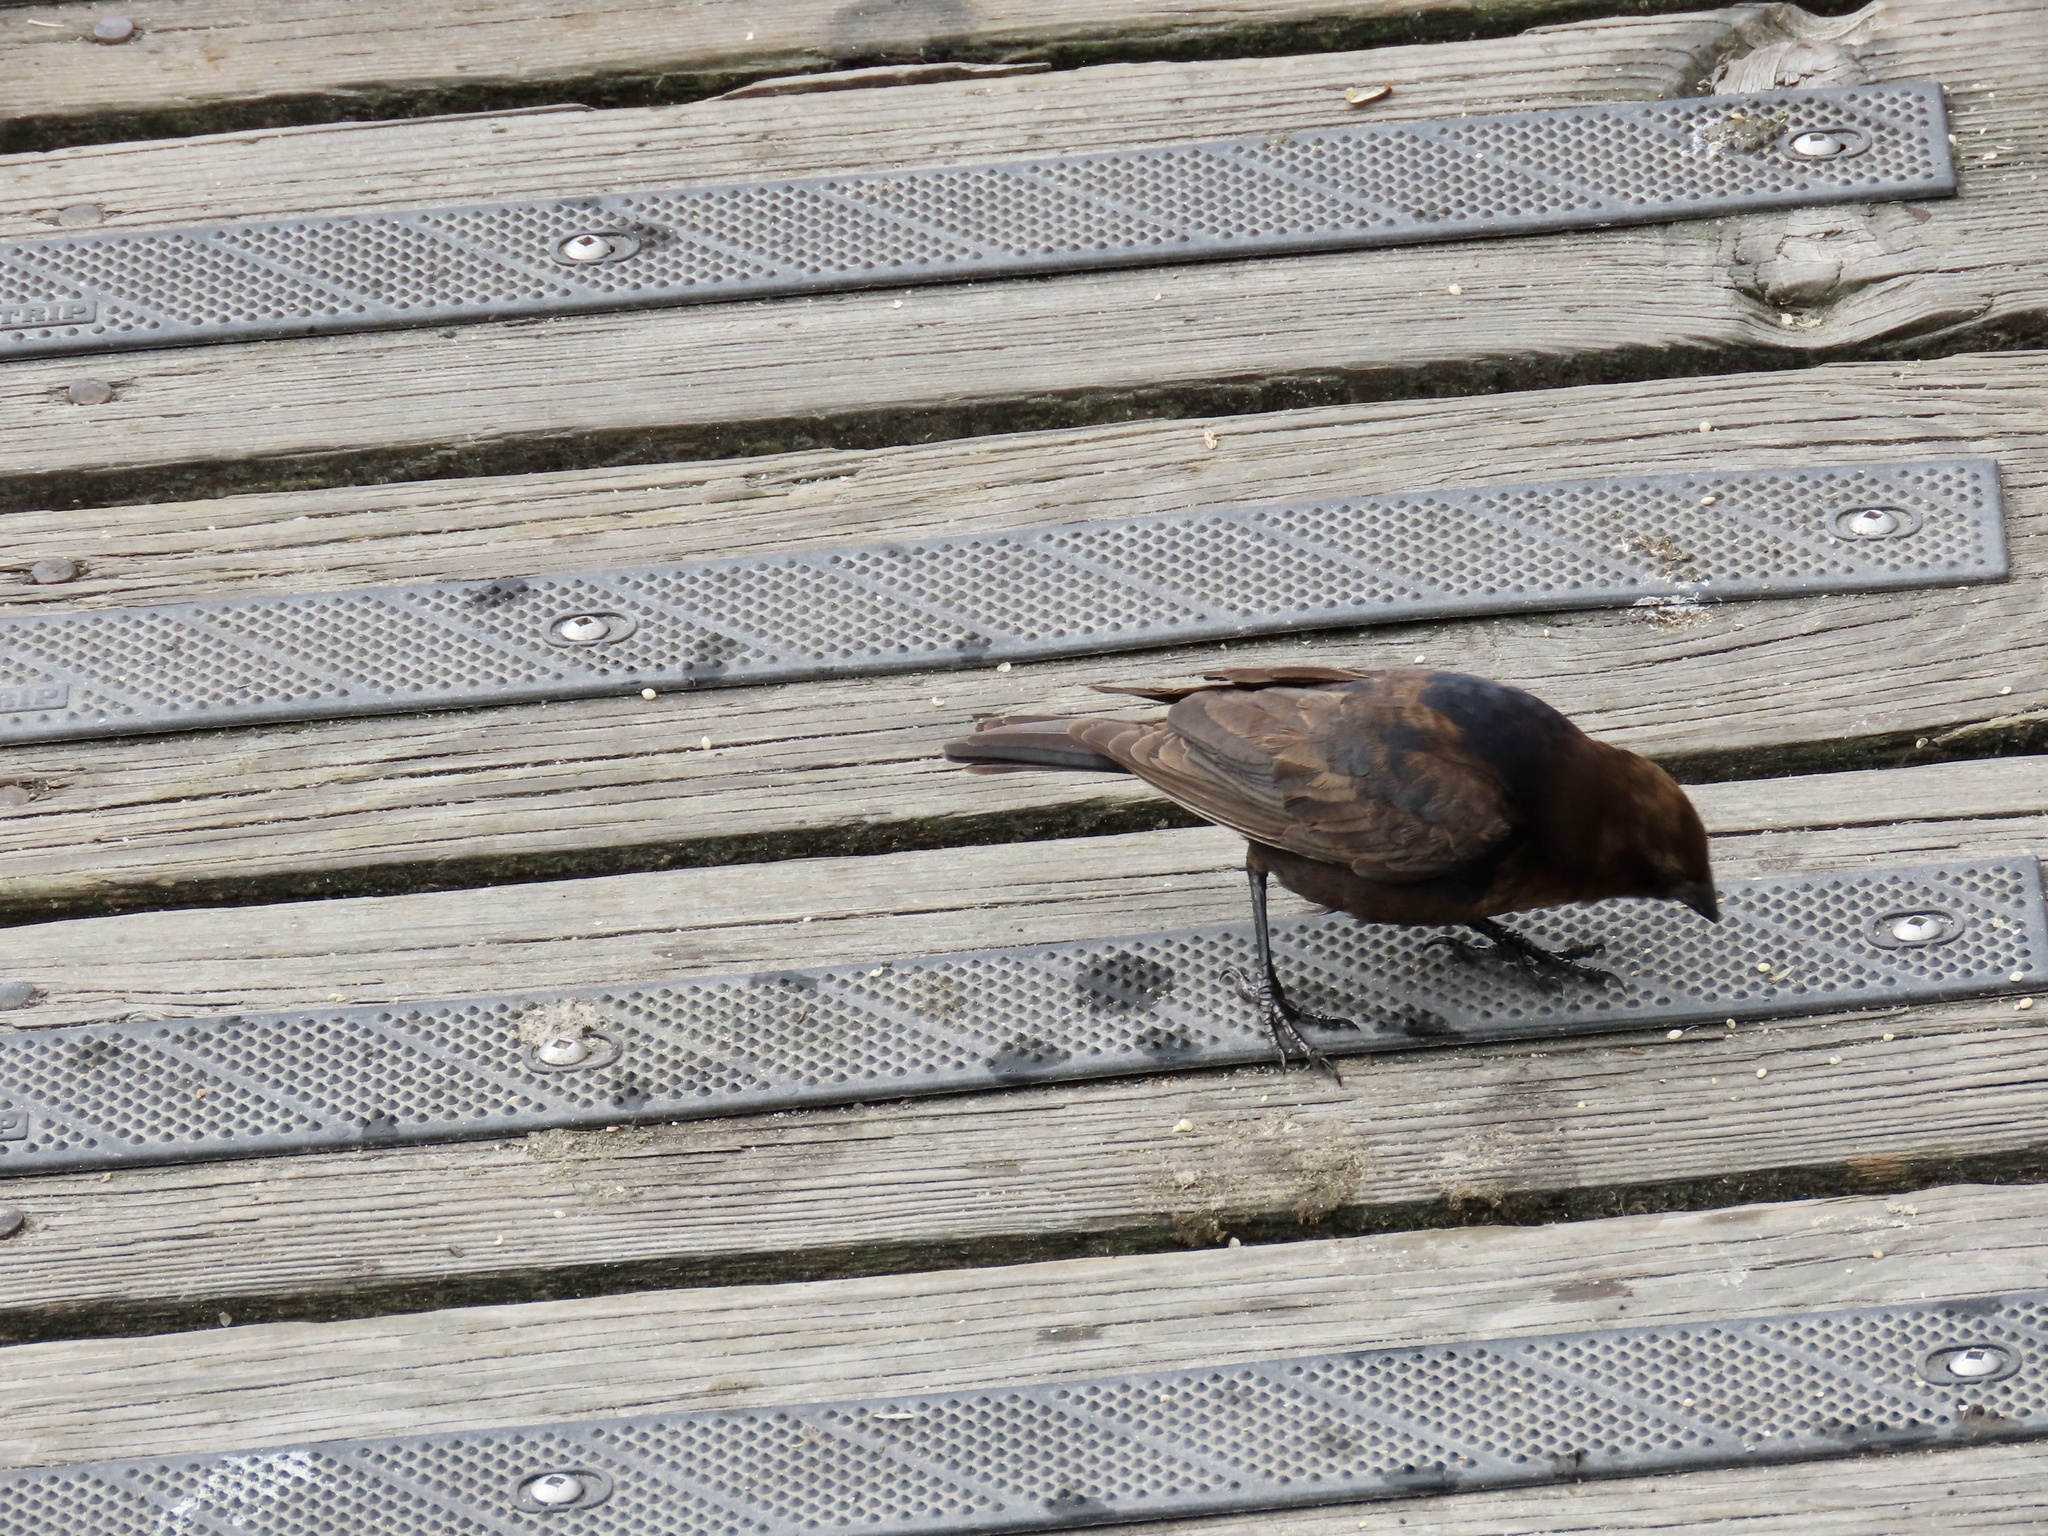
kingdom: Animalia
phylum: Chordata
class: Aves
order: Passeriformes
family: Icteridae
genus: Molothrus
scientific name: Molothrus ater
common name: Brown-headed cowbird
